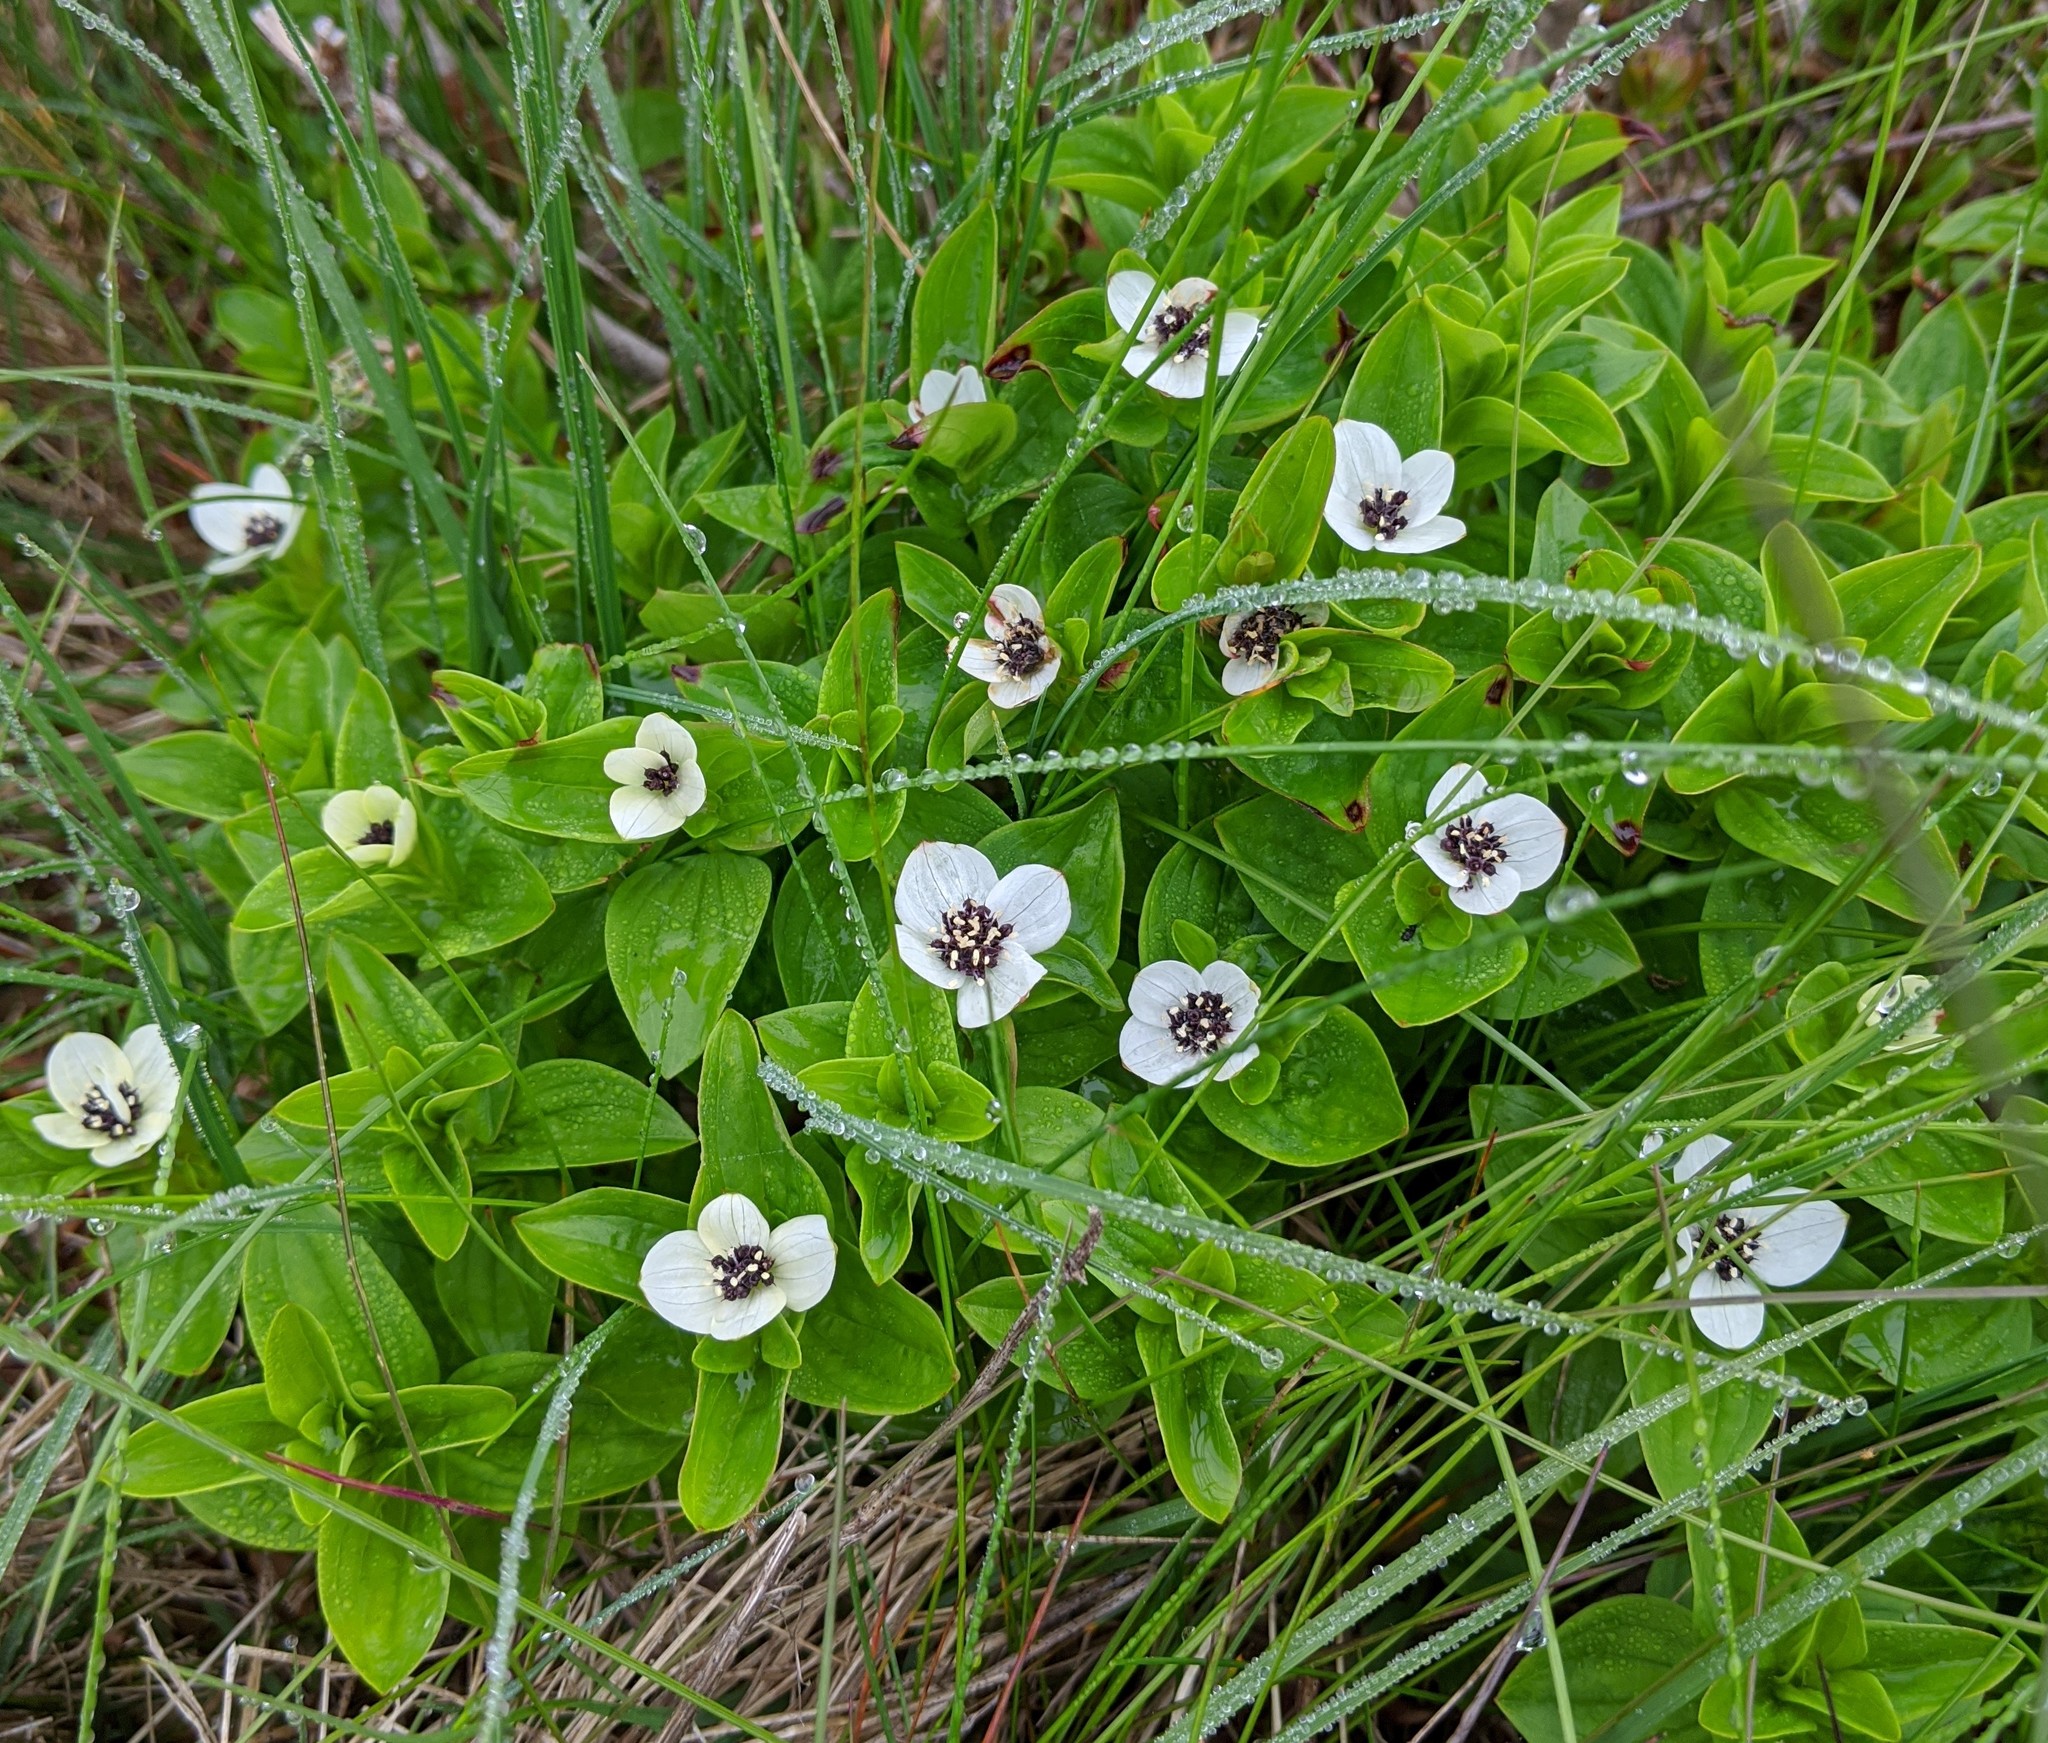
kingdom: Plantae
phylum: Tracheophyta
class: Magnoliopsida
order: Cornales
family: Cornaceae
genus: Cornus
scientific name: Cornus suecica
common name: Dwarf cornel
